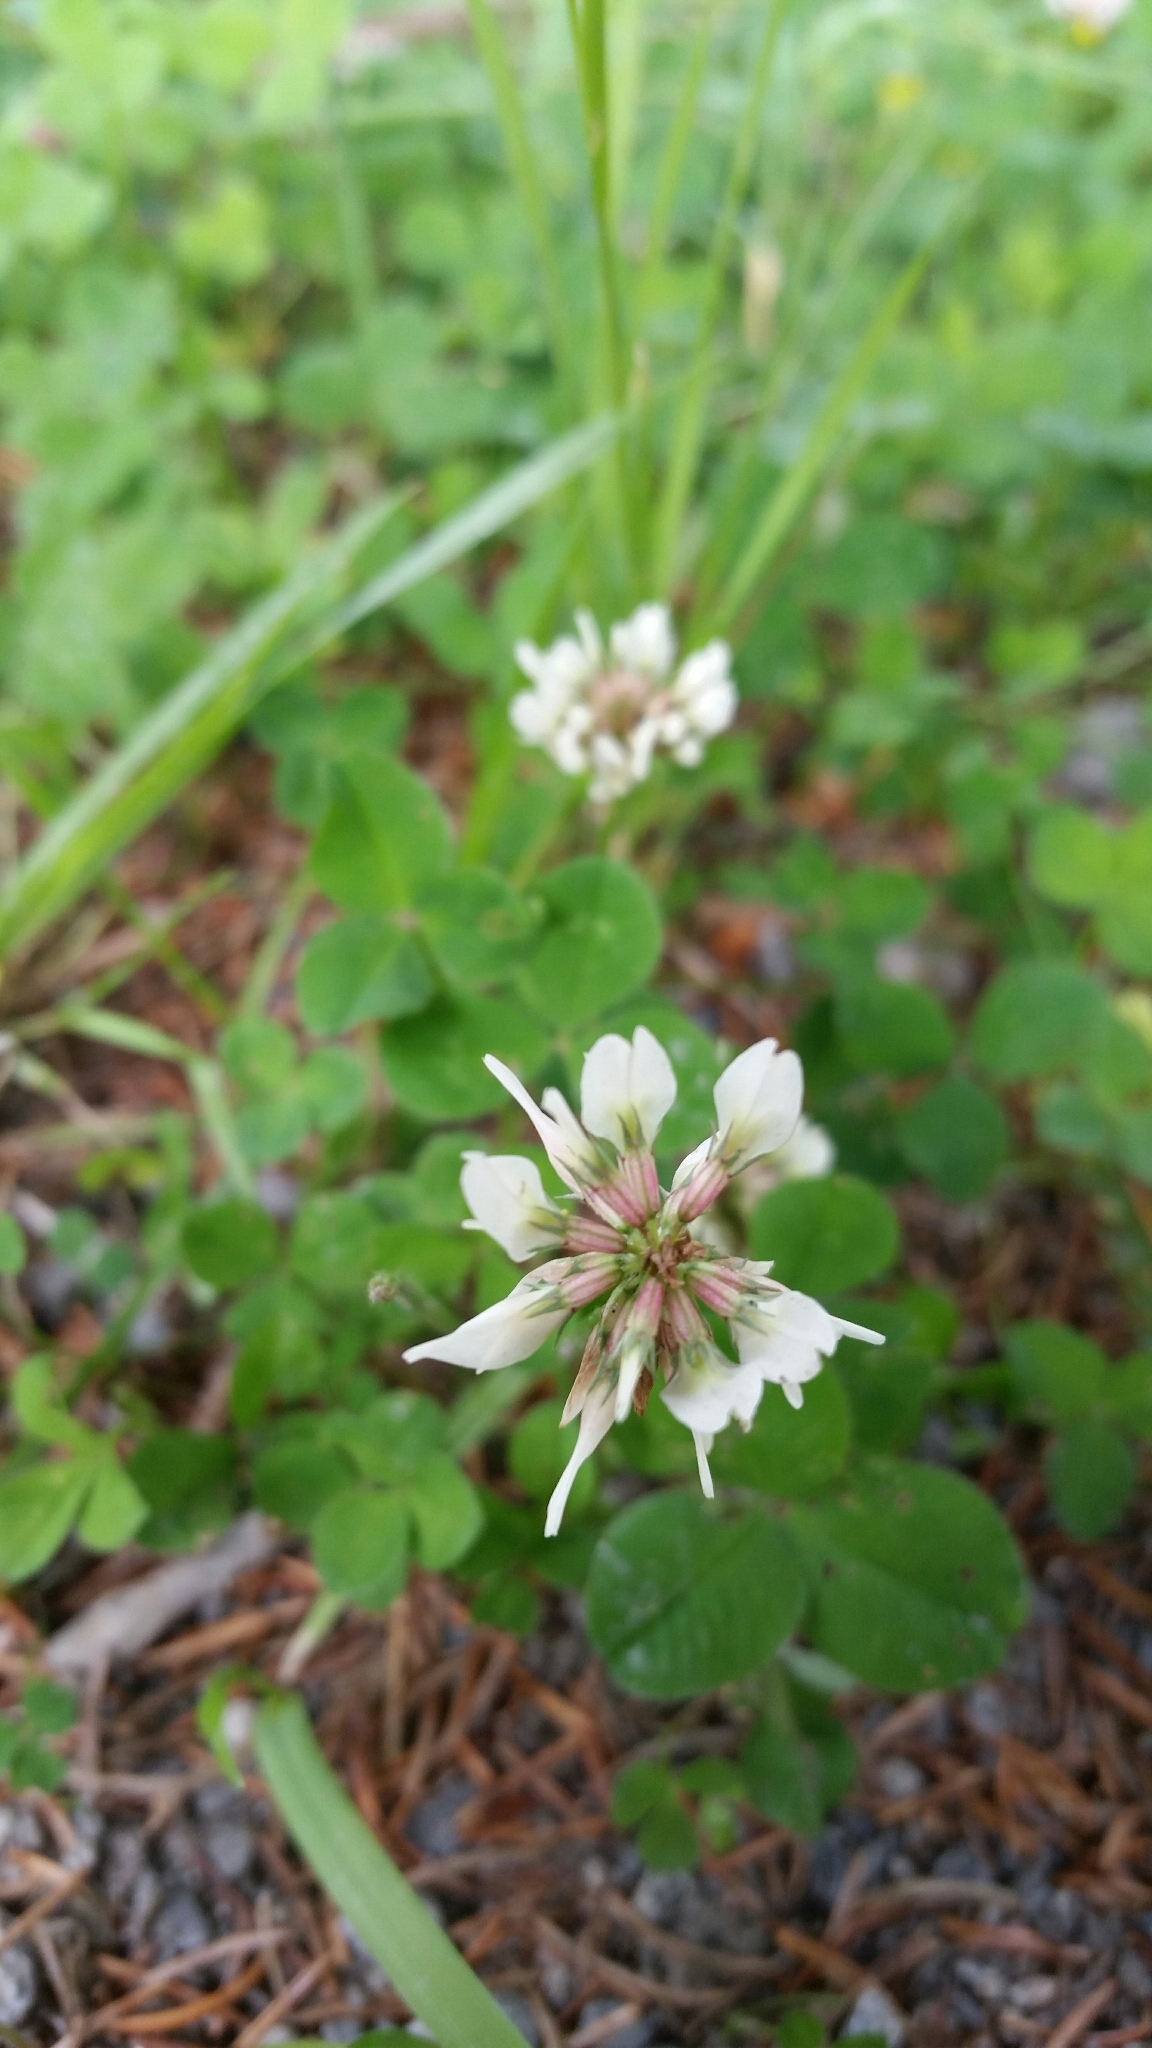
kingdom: Plantae
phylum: Tracheophyta
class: Magnoliopsida
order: Fabales
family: Fabaceae
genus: Trifolium
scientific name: Trifolium repens
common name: White clover
